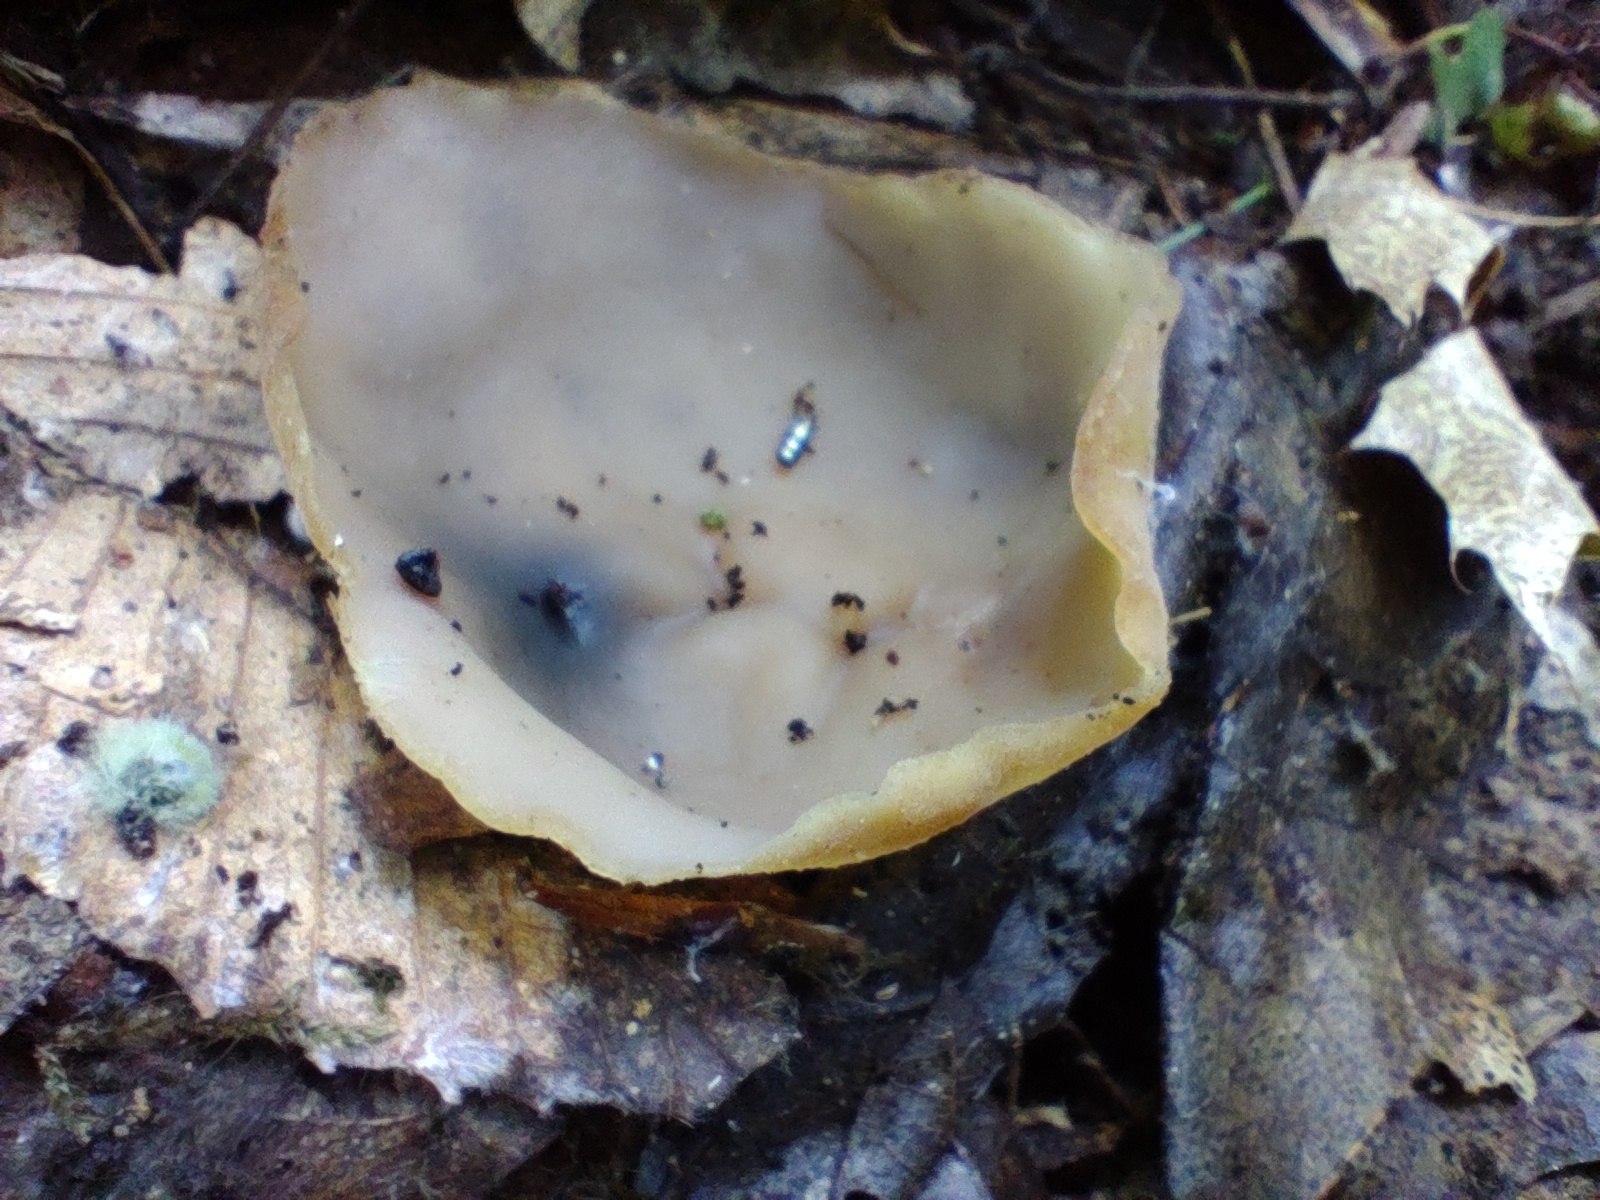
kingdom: Fungi
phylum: Ascomycota
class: Pezizomycetes
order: Pezizales
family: Pezizaceae
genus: Peziza
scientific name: Peziza varia
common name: Layered cup
